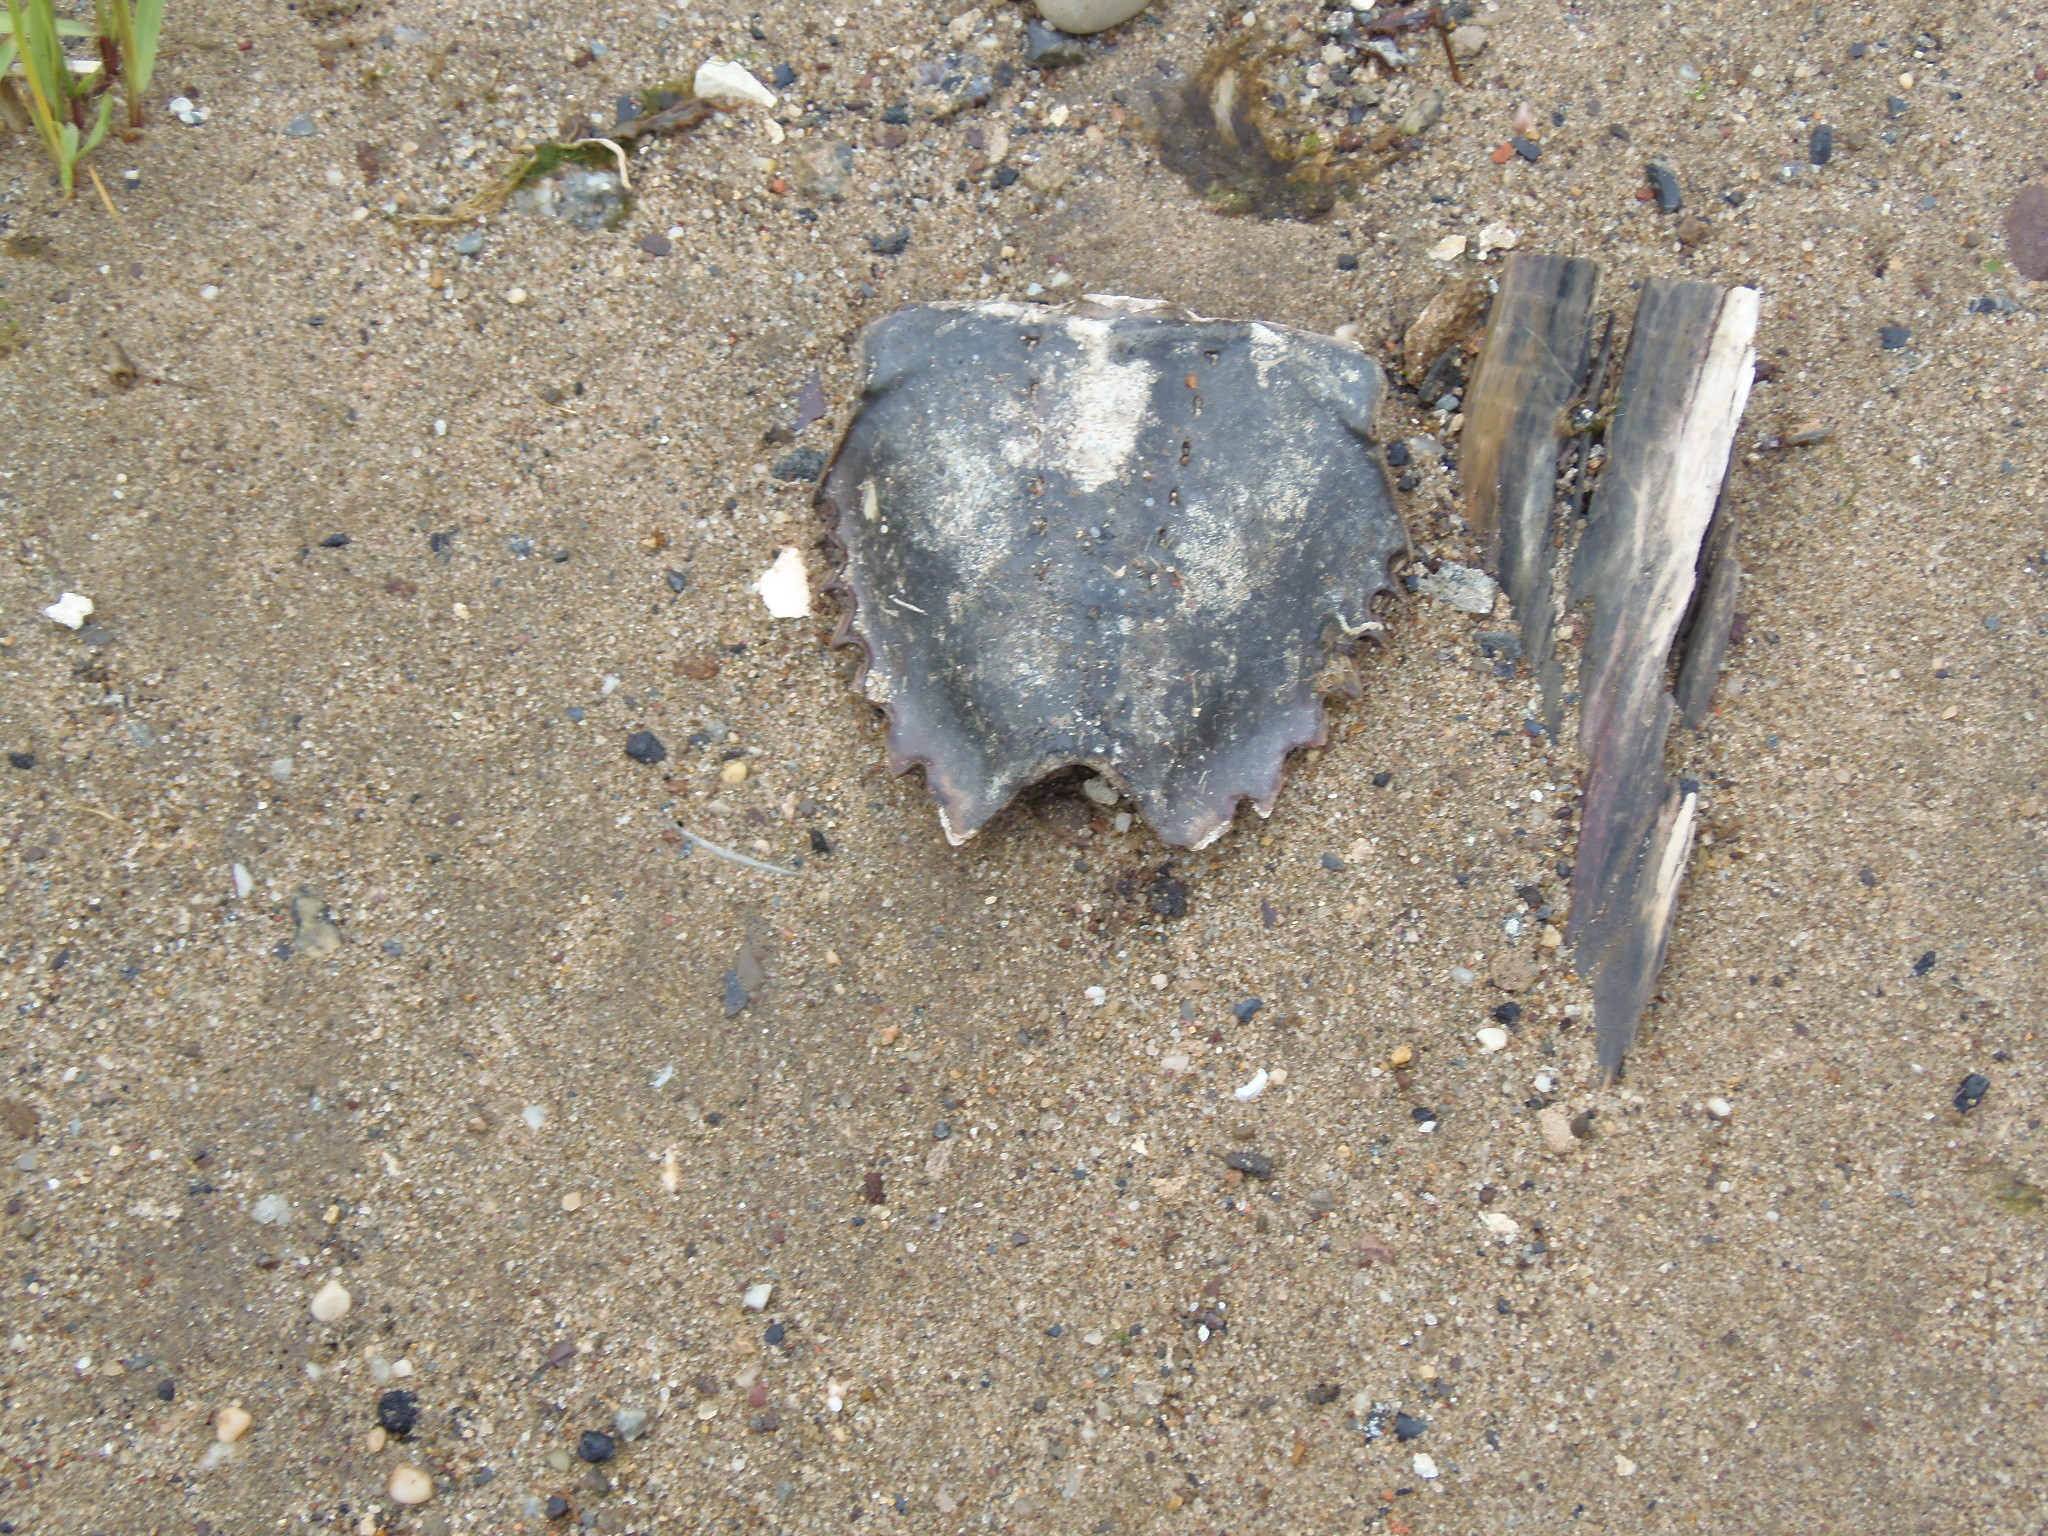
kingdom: Animalia
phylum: Arthropoda
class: Merostomata
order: Xiphosurida
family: Limulidae
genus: Limulus
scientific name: Limulus polyphemus
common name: Horseshoe crab
